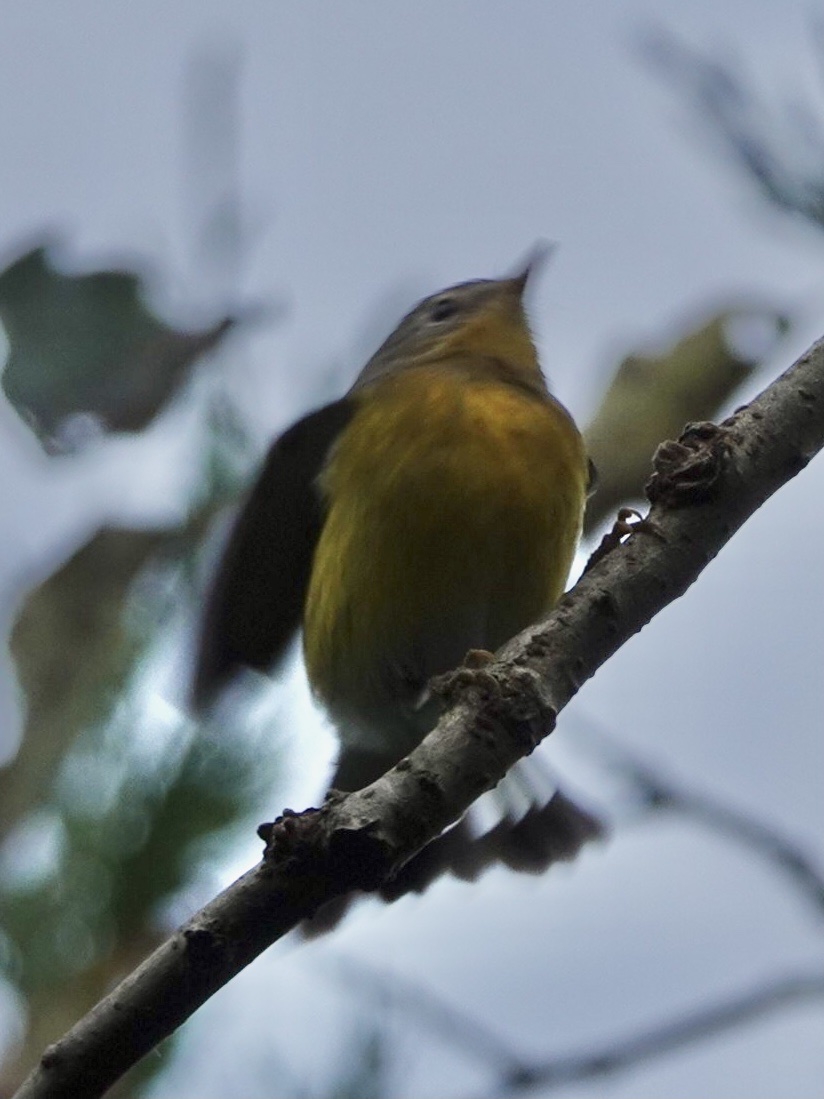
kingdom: Animalia
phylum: Chordata
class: Aves
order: Passeriformes
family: Parulidae
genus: Setophaga
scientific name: Setophaga magnolia
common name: Magnolia warbler
